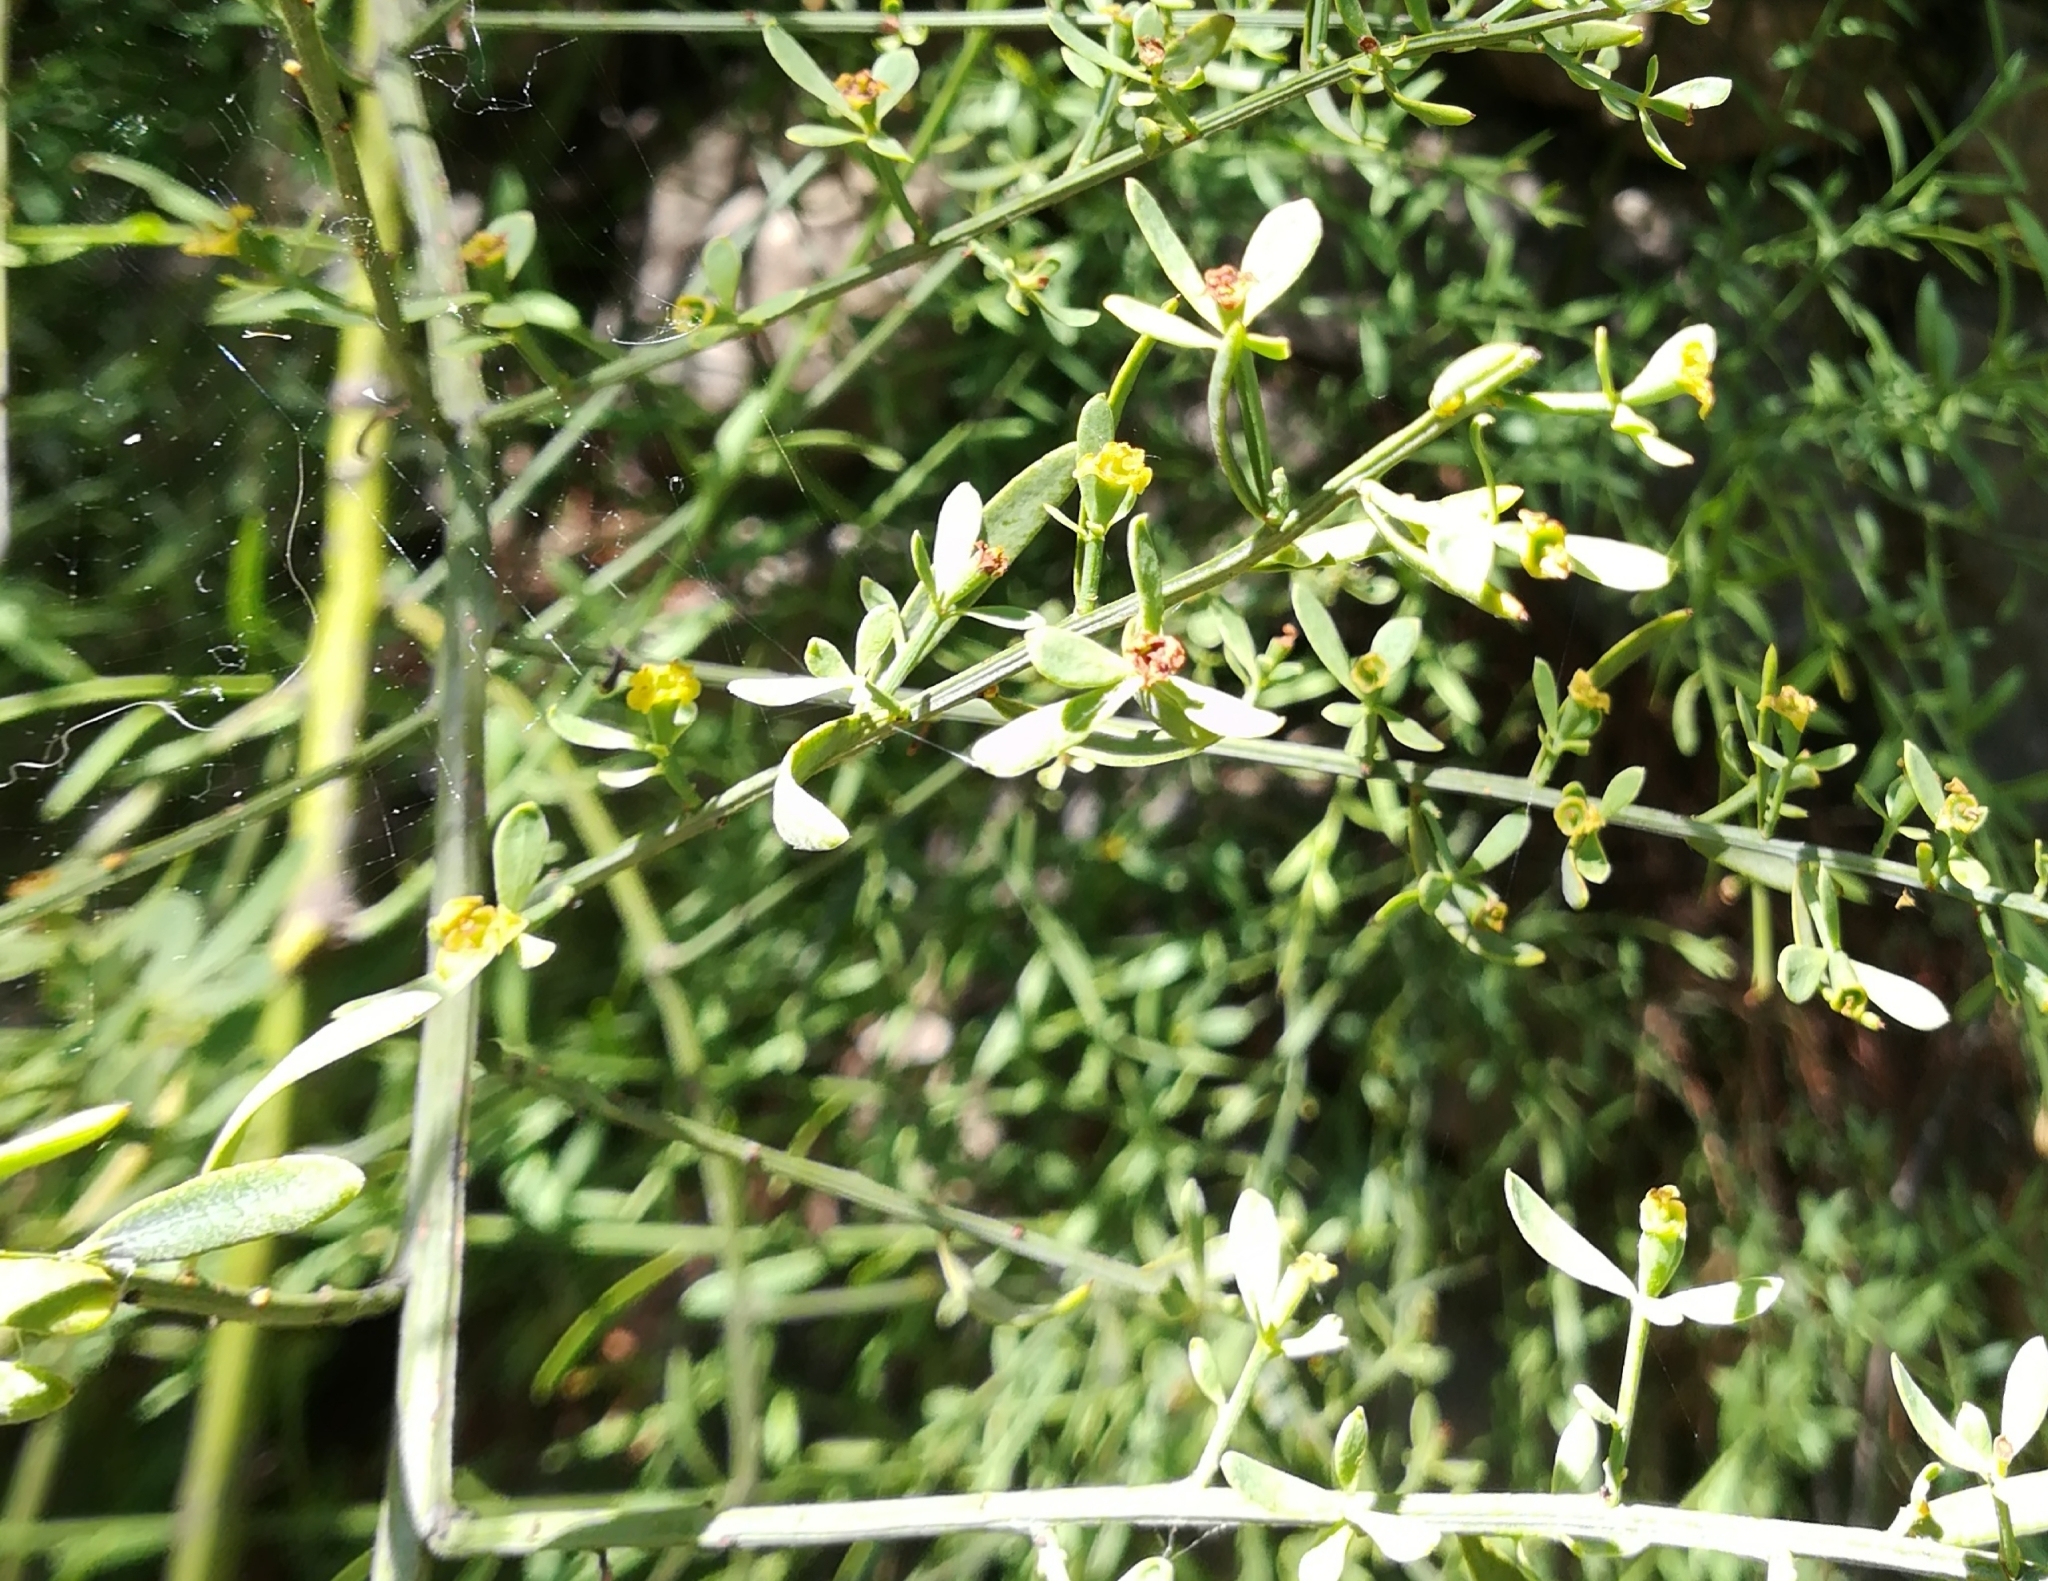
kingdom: Plantae
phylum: Tracheophyta
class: Magnoliopsida
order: Santalales
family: Santalaceae
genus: Osyris
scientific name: Osyris alba
